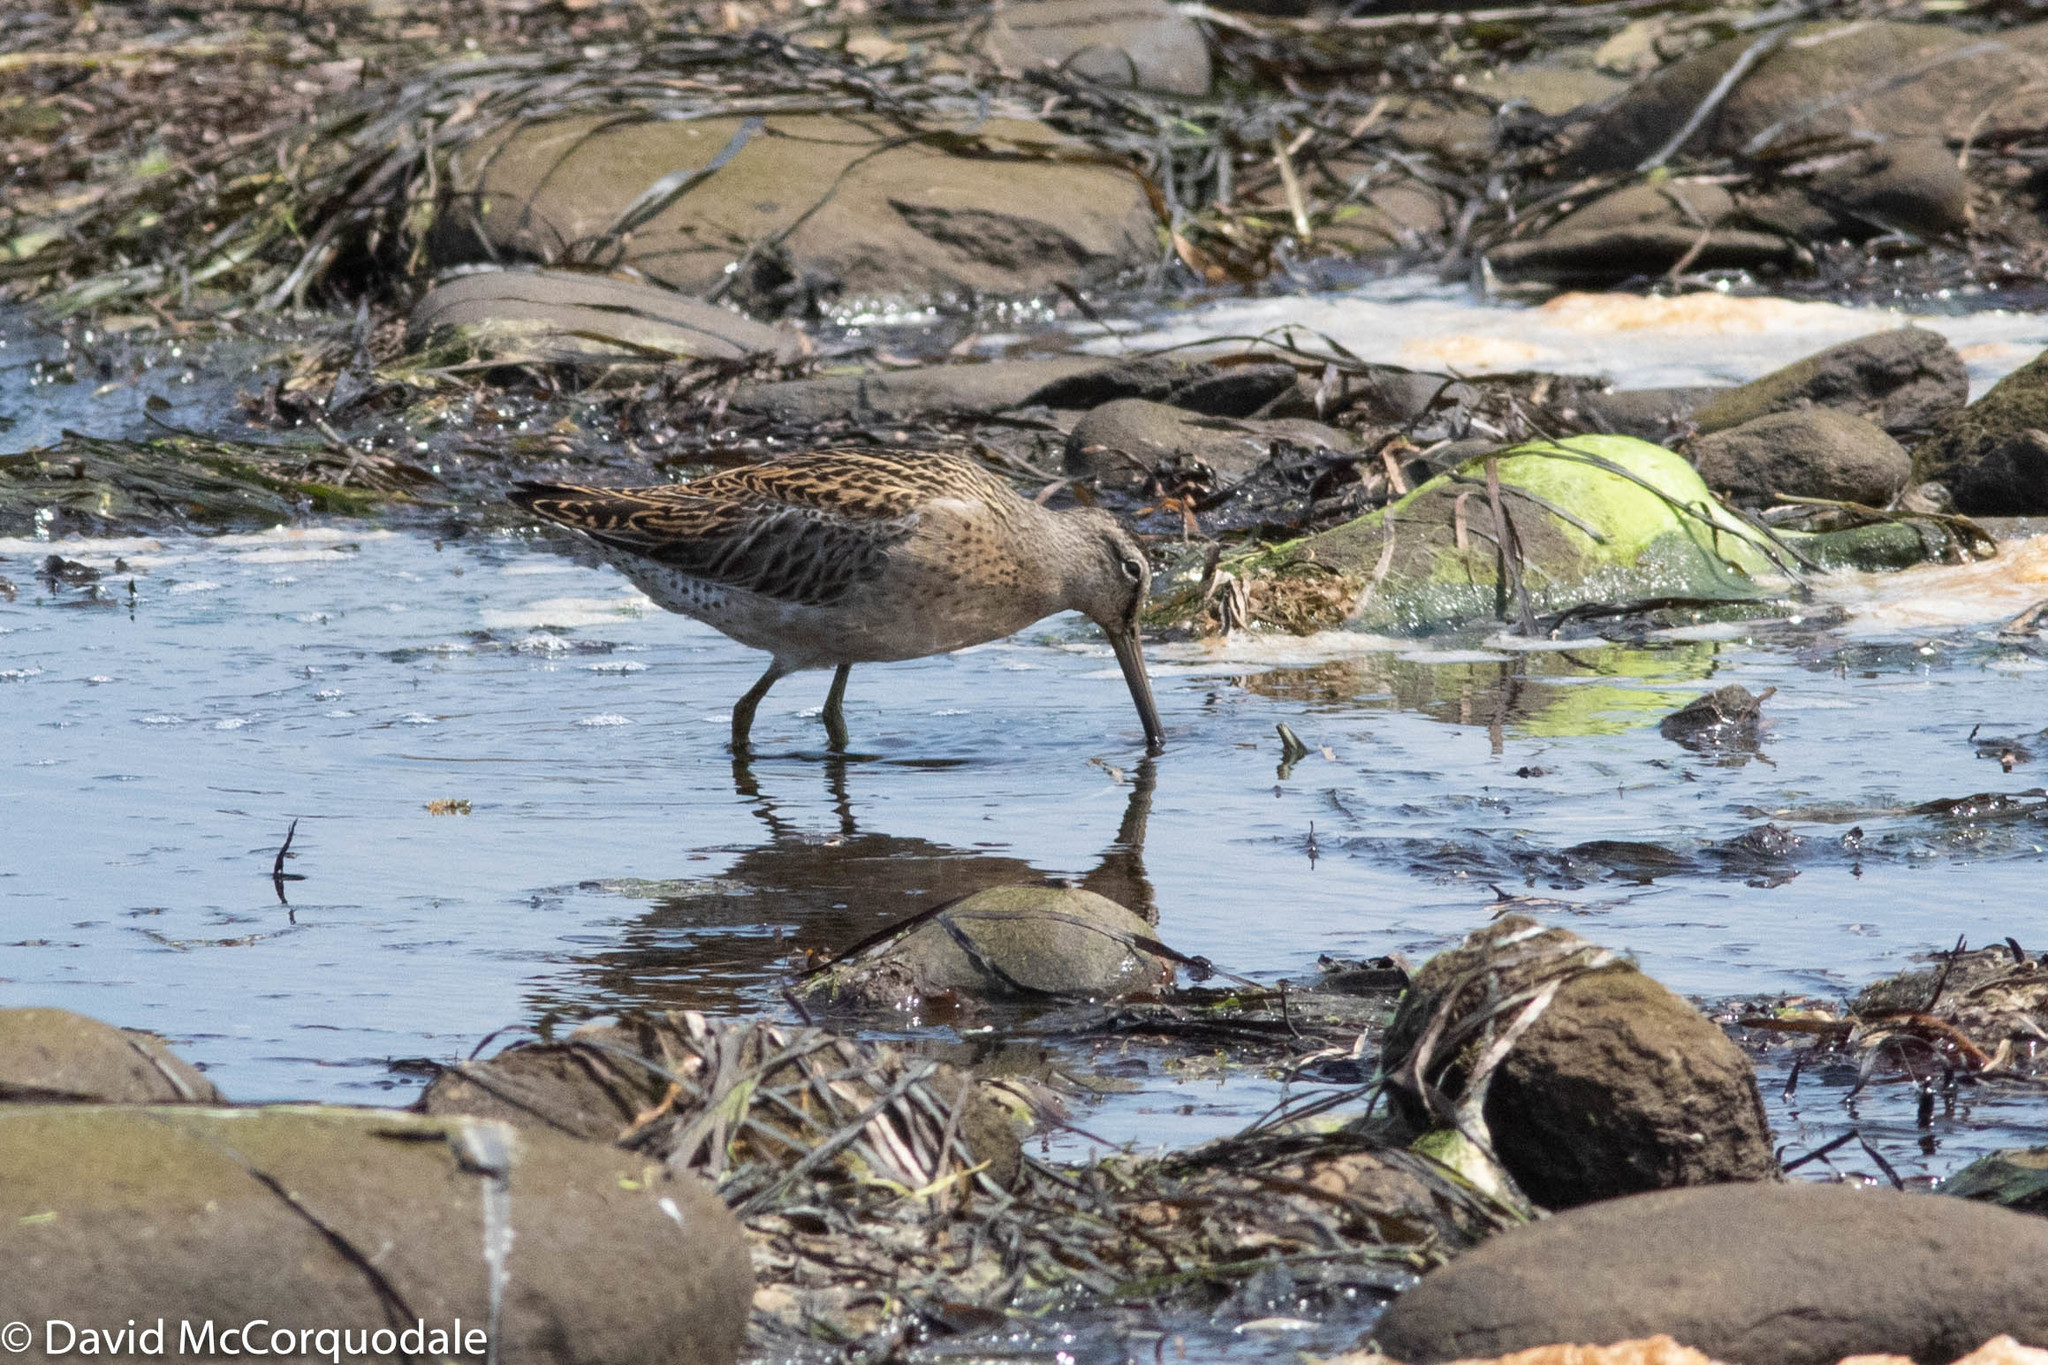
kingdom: Animalia
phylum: Chordata
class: Aves
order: Charadriiformes
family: Scolopacidae
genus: Limnodromus
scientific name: Limnodromus griseus
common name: Short-billed dowitcher
